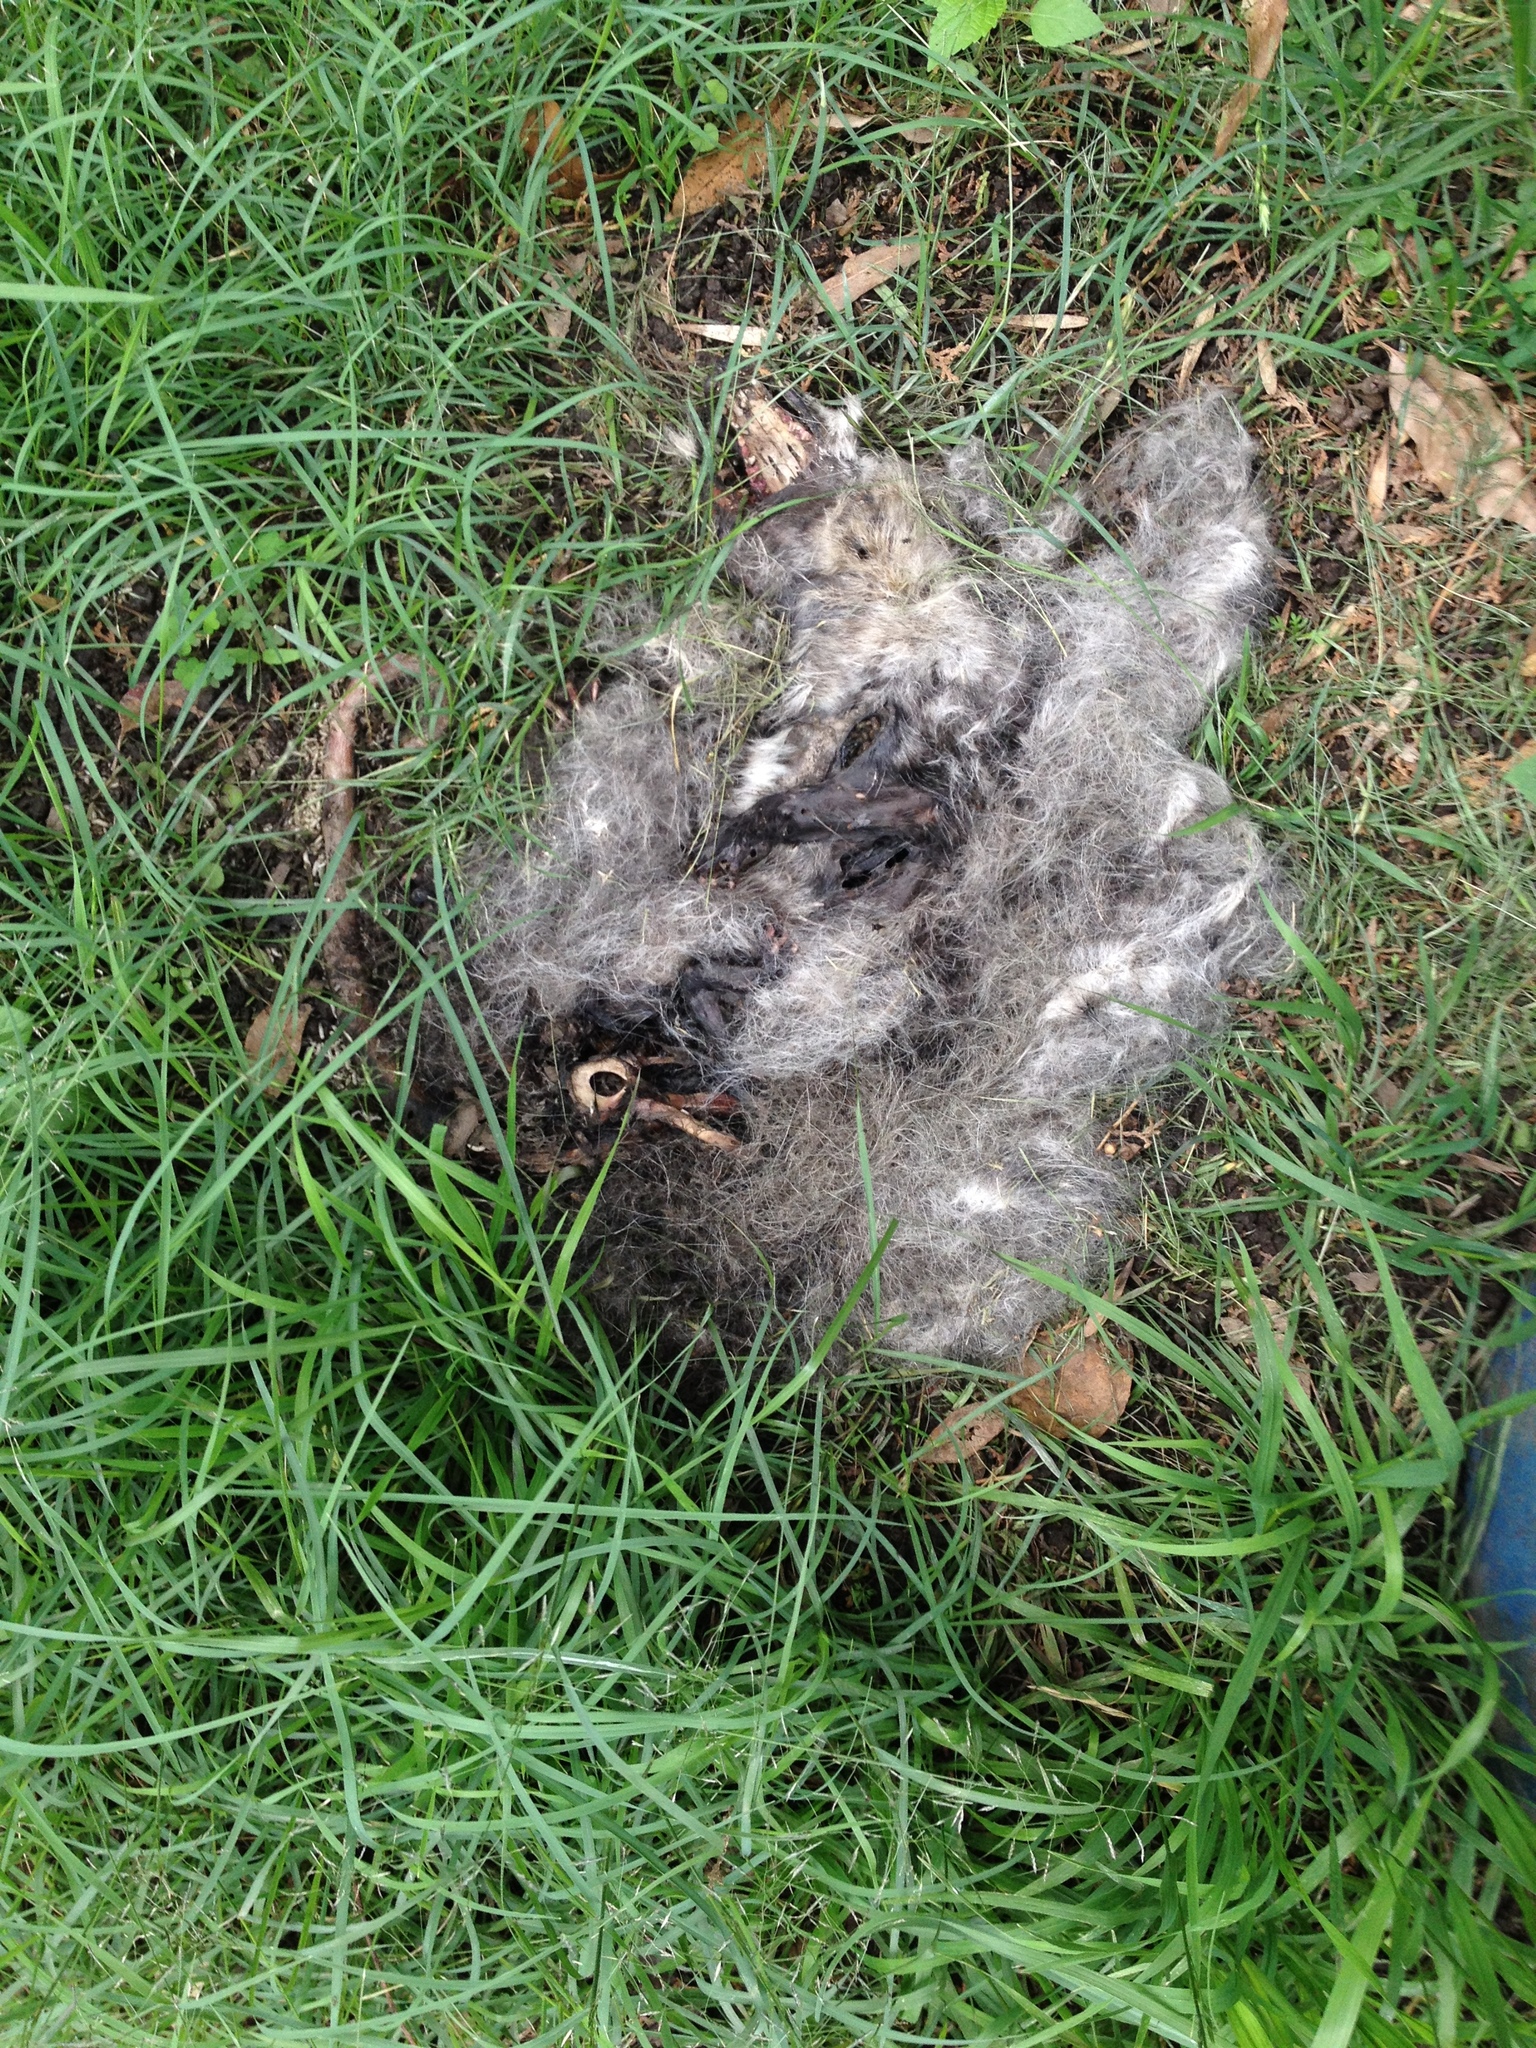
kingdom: Animalia
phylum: Chordata
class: Mammalia
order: Didelphimorphia
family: Didelphidae
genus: Didelphis
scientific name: Didelphis virginiana
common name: Virginia opossum
